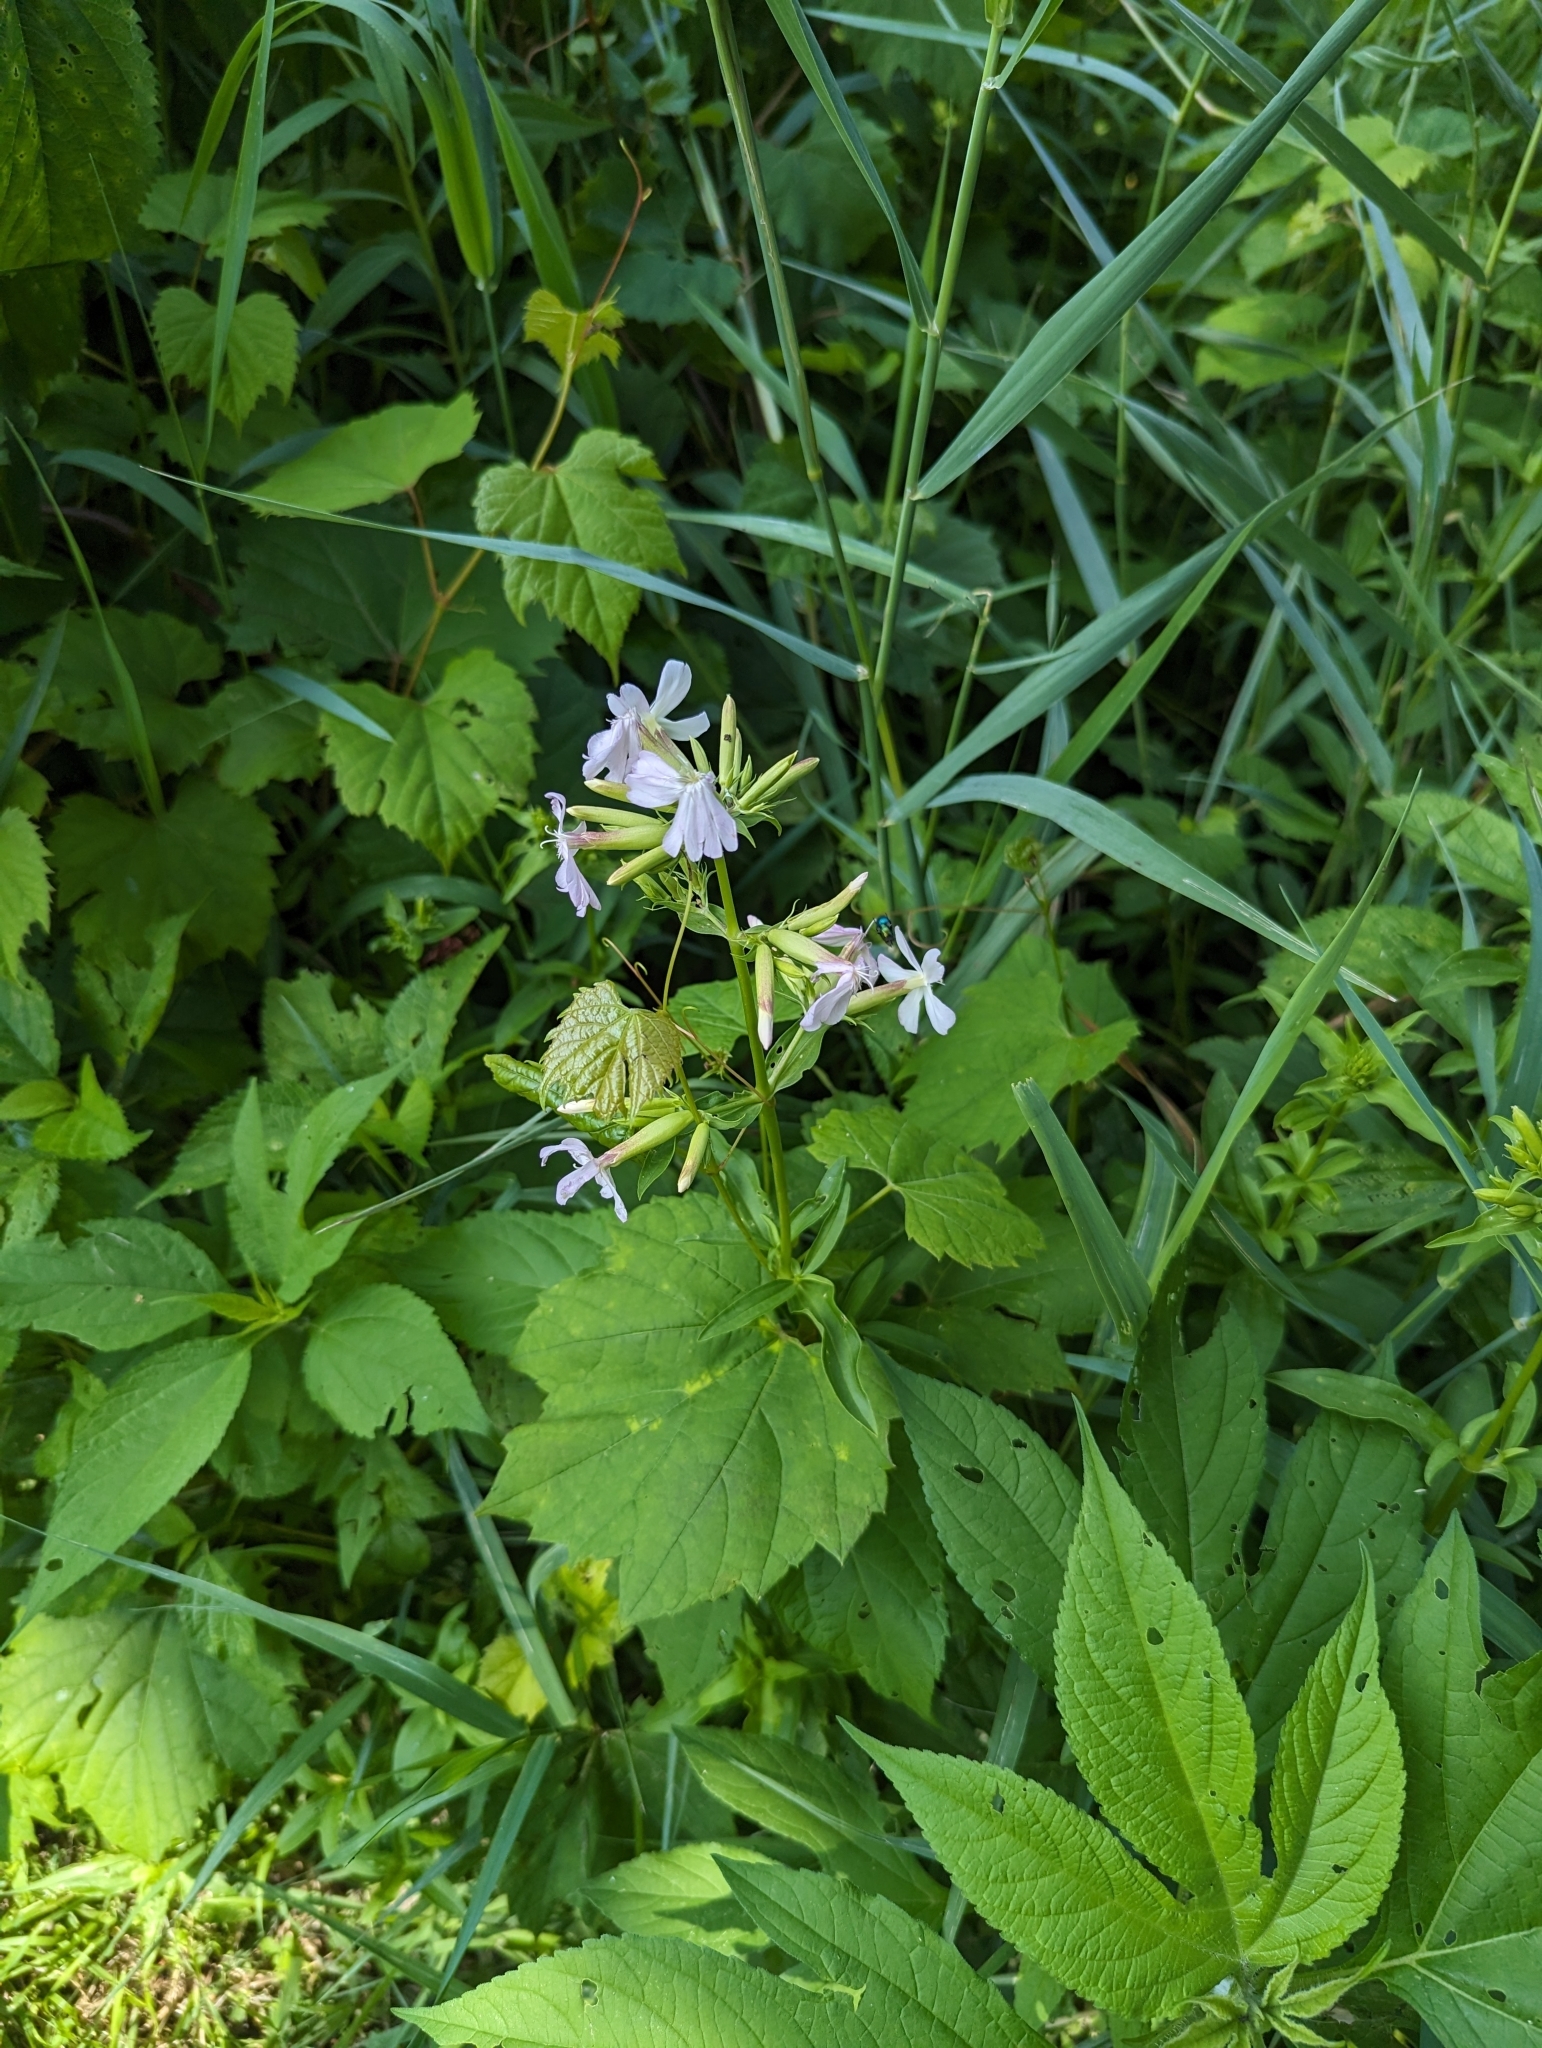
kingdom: Plantae
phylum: Tracheophyta
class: Magnoliopsida
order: Caryophyllales
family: Caryophyllaceae
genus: Saponaria
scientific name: Saponaria officinalis
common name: Soapwort
